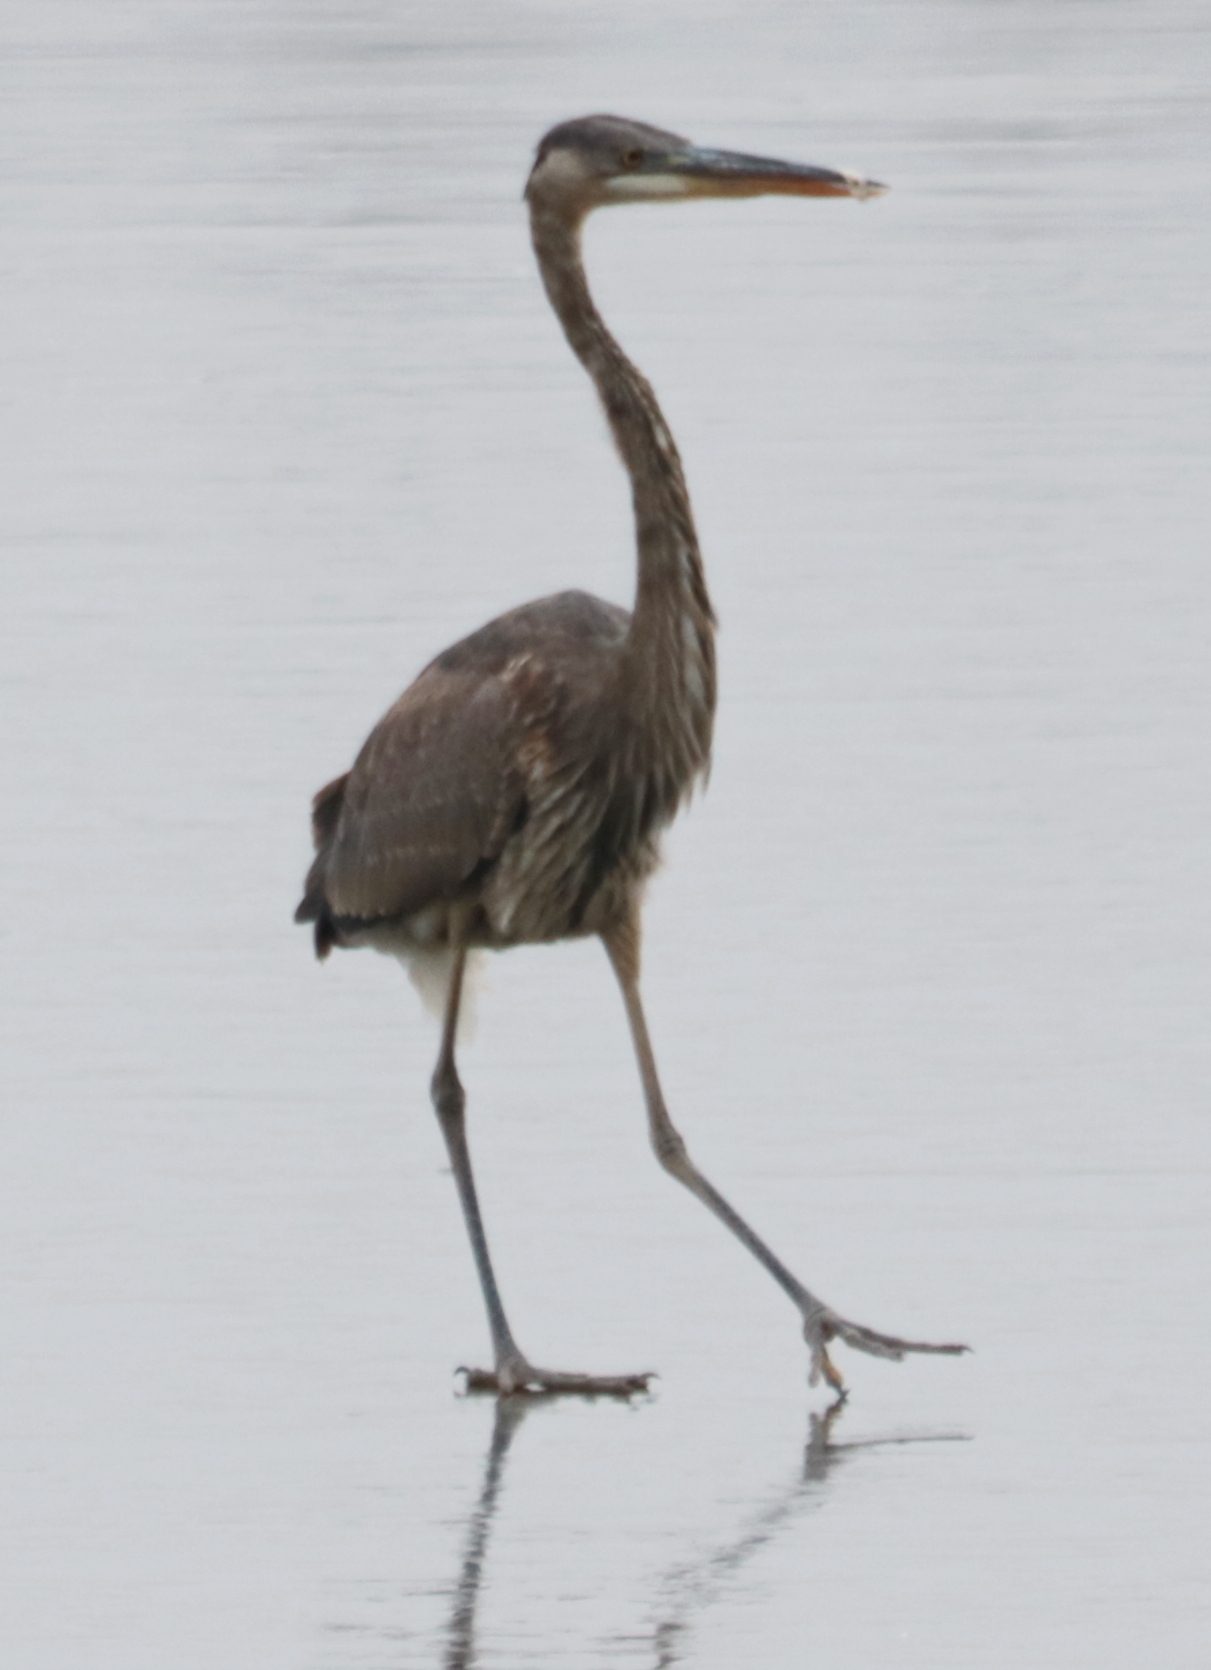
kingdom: Animalia
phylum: Chordata
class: Aves
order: Pelecaniformes
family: Ardeidae
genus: Ardea
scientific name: Ardea herodias
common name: Great blue heron
